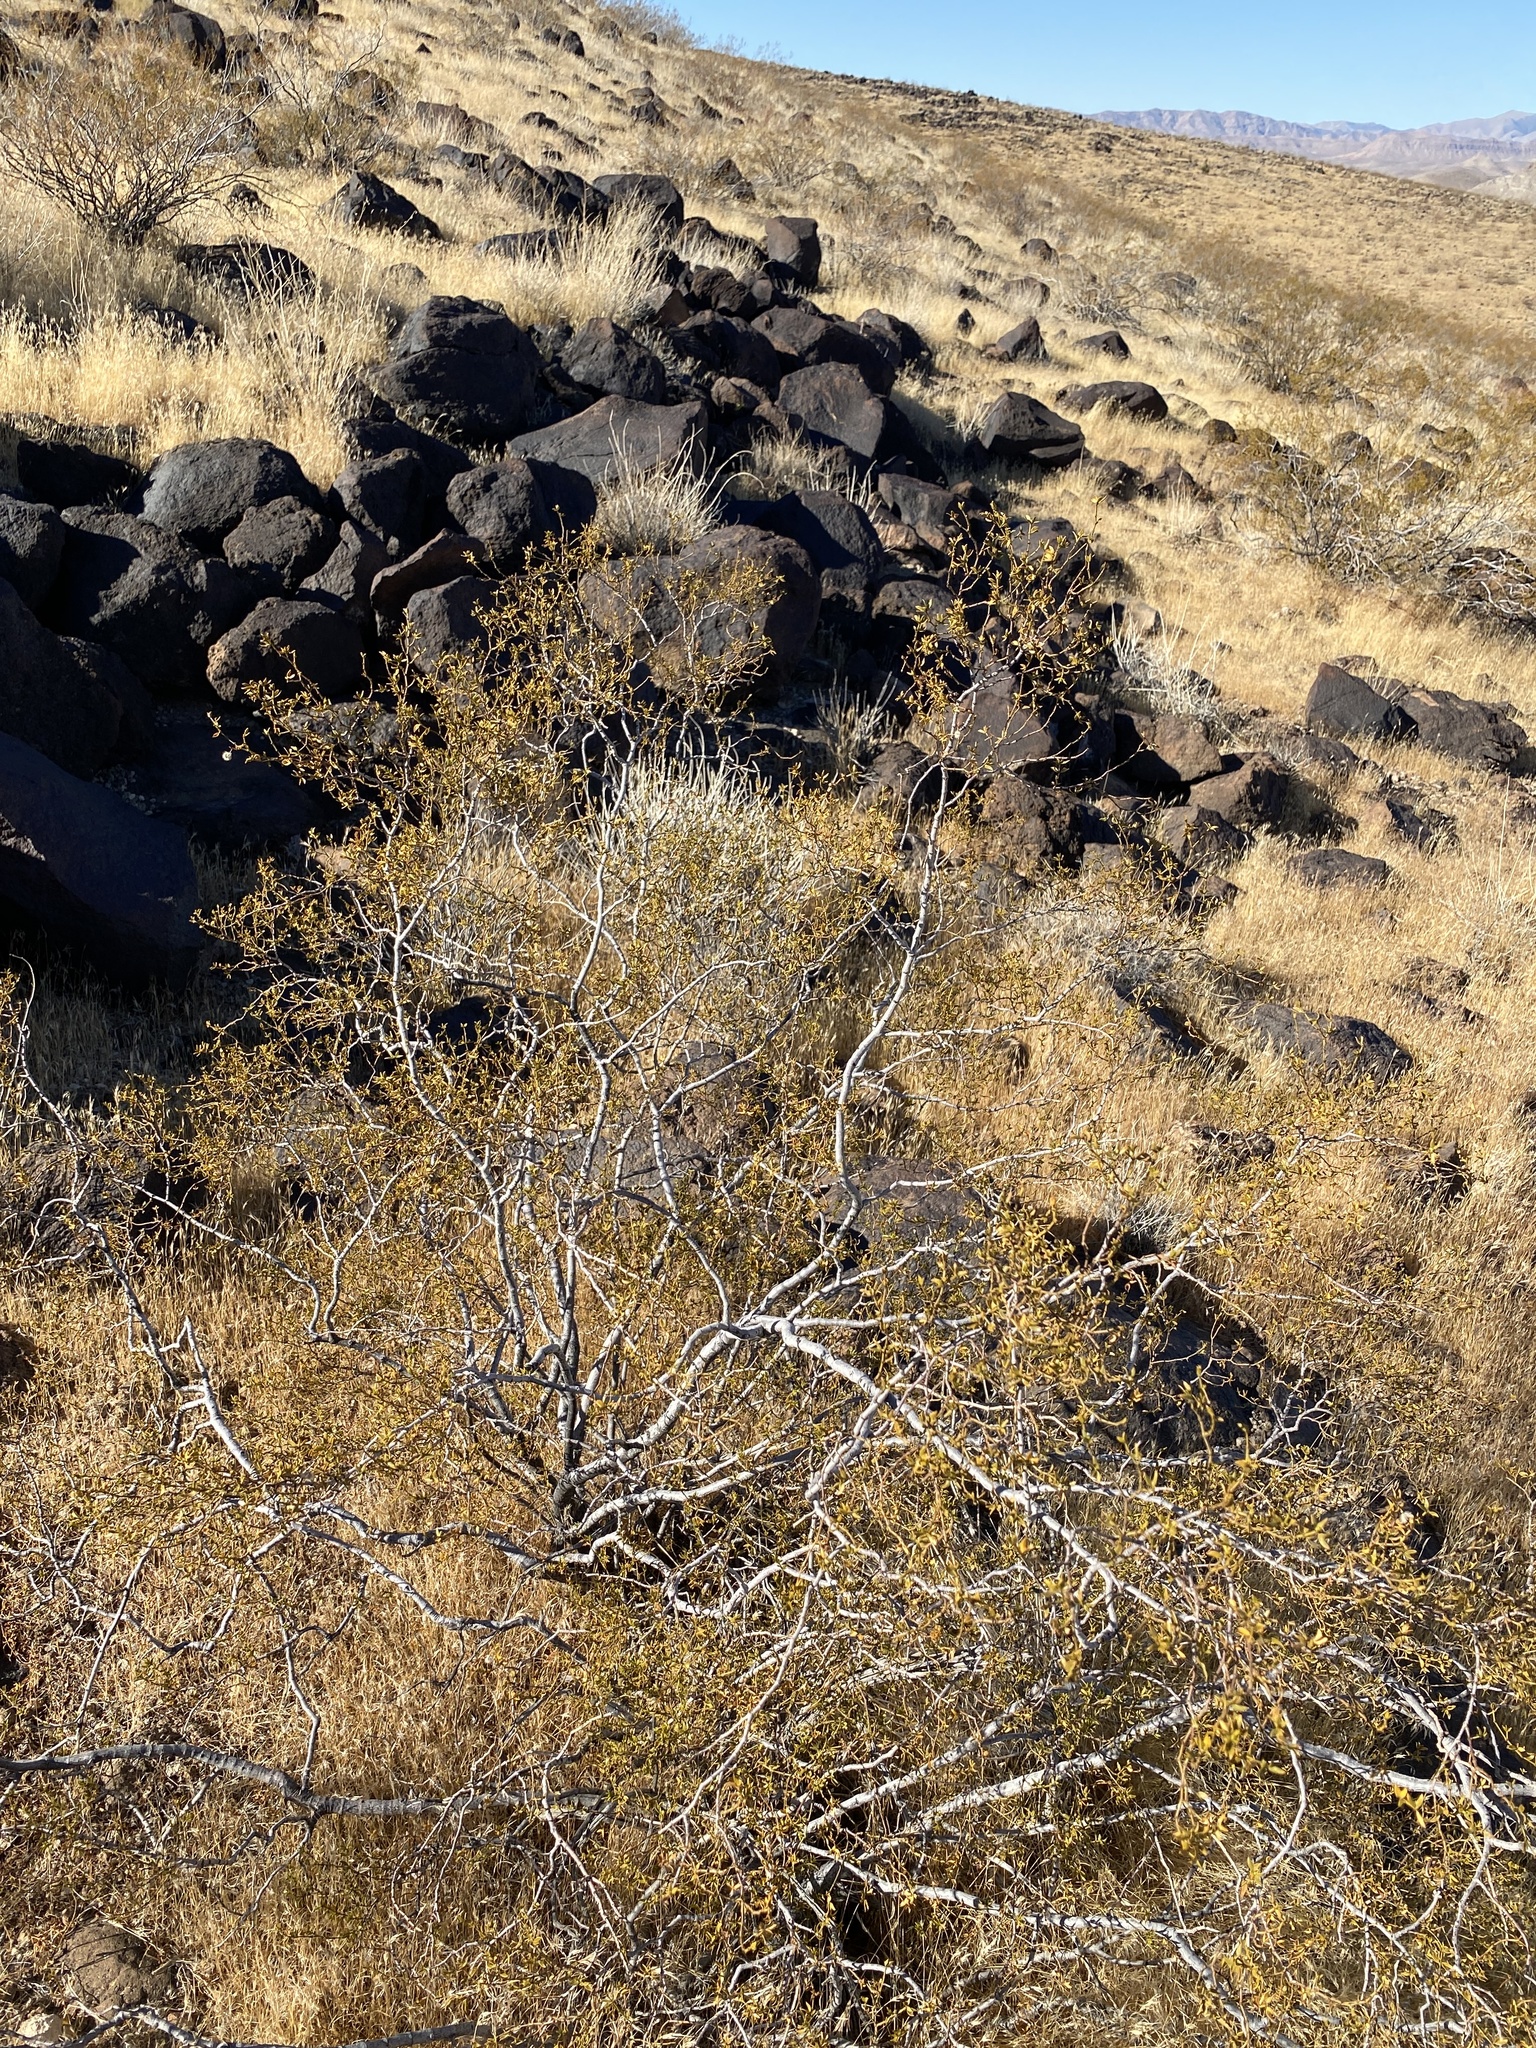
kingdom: Plantae
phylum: Tracheophyta
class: Magnoliopsida
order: Zygophyllales
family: Zygophyllaceae
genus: Larrea
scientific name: Larrea tridentata
